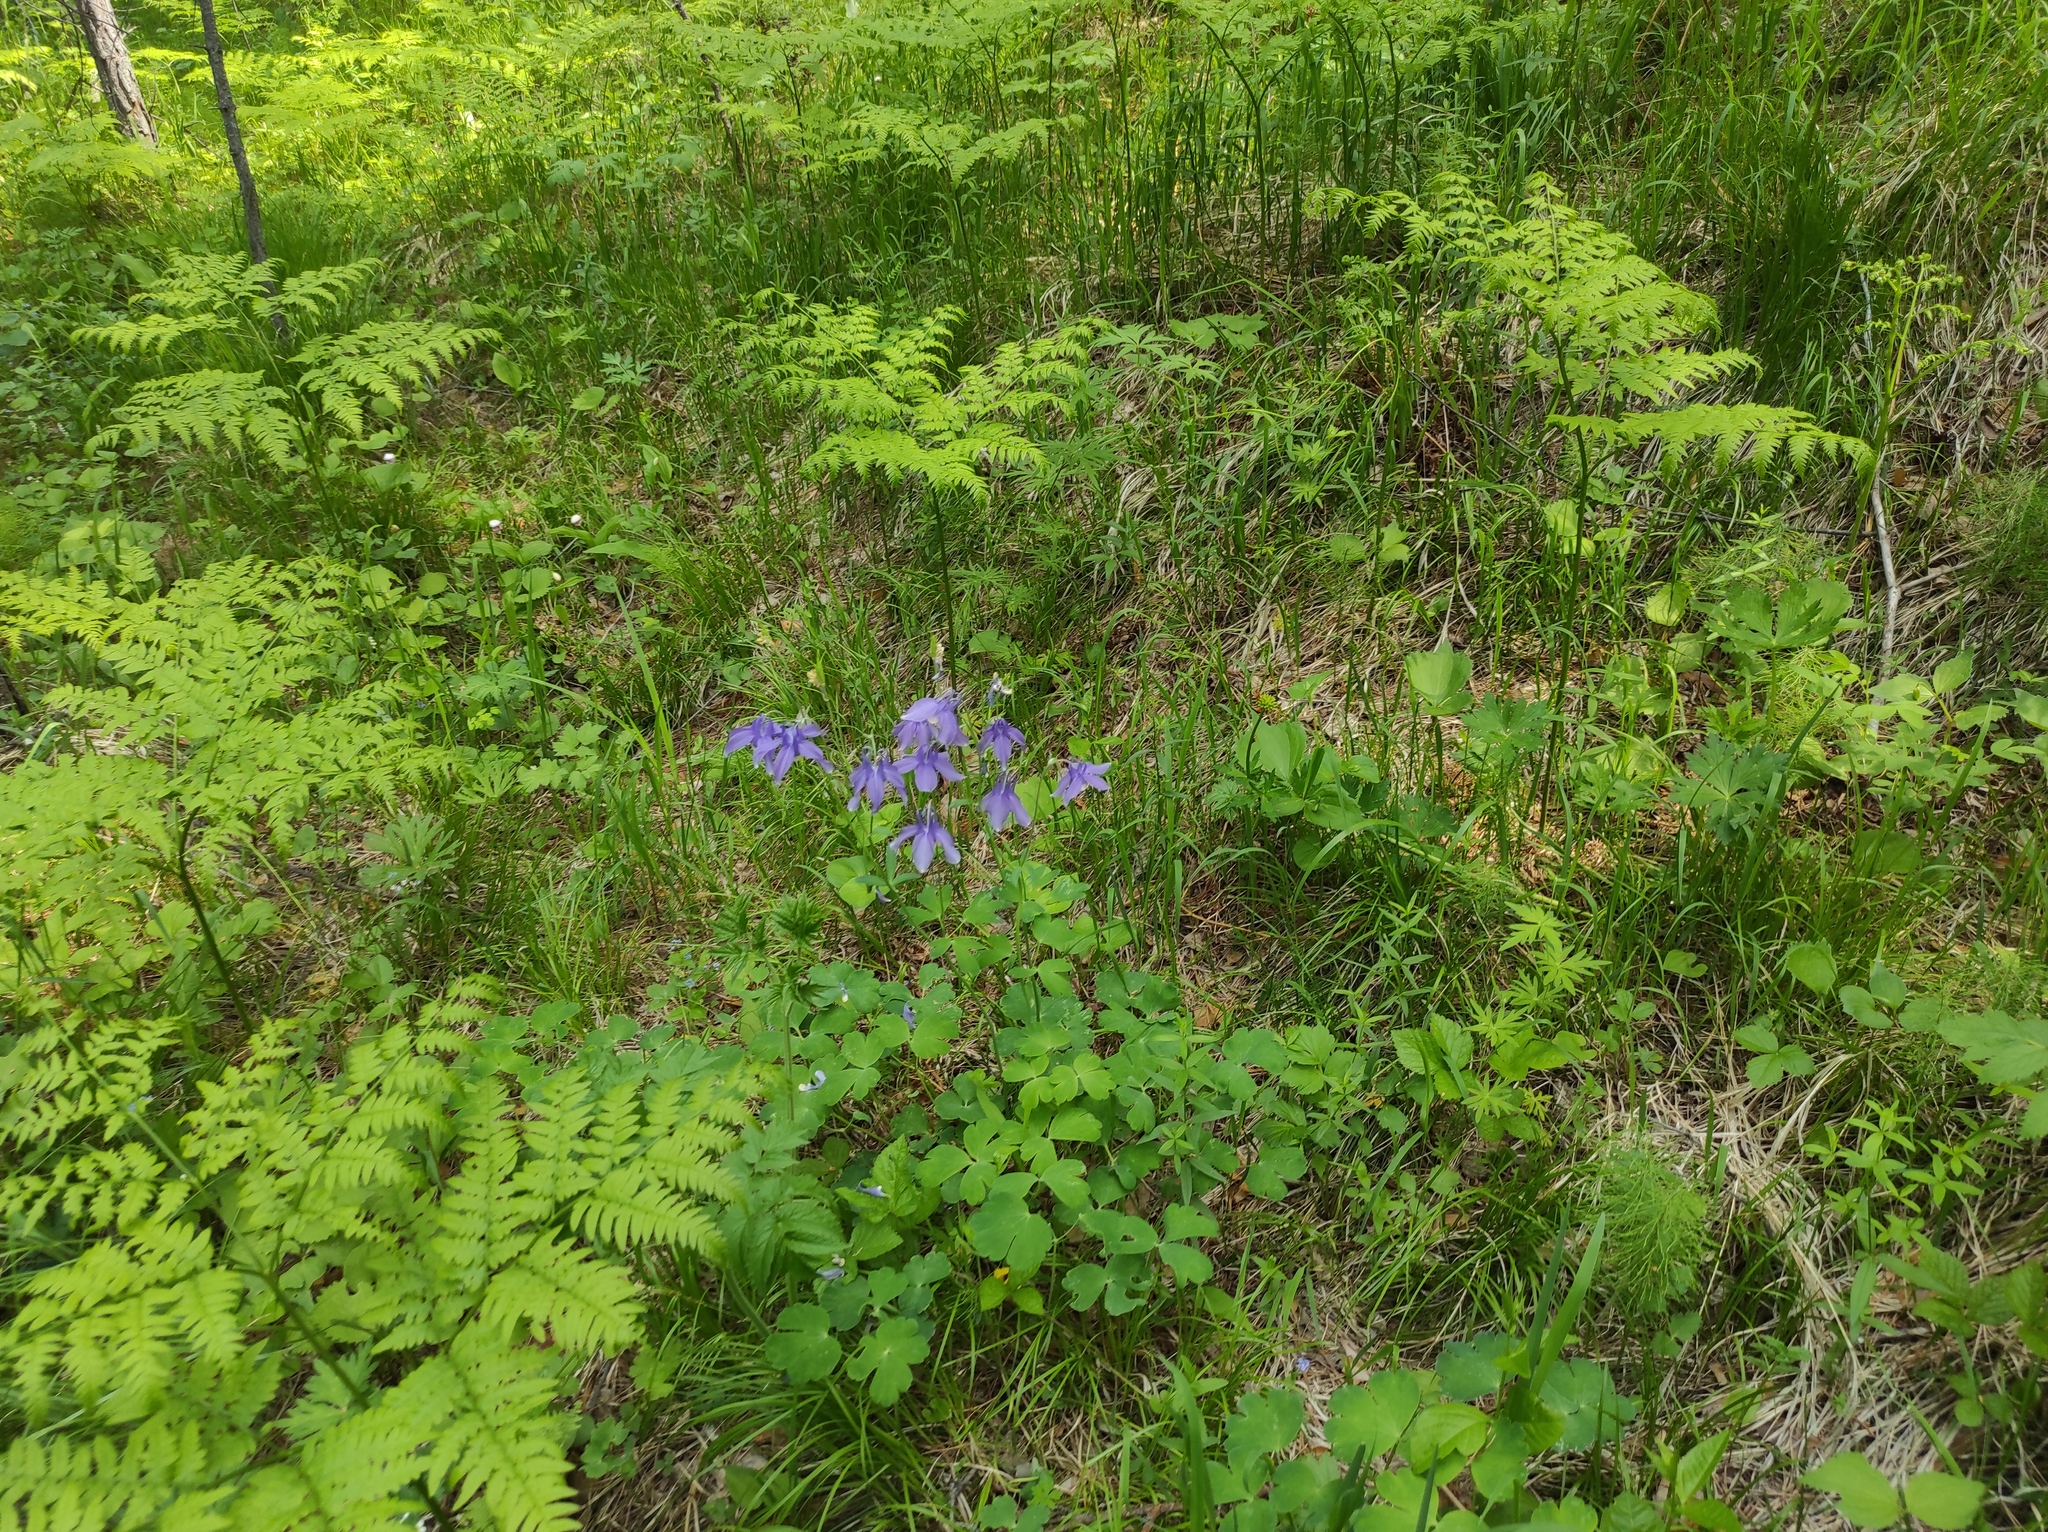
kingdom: Plantae
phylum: Tracheophyta
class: Magnoliopsida
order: Ranunculales
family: Ranunculaceae
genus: Aquilegia
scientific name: Aquilegia sibirica
